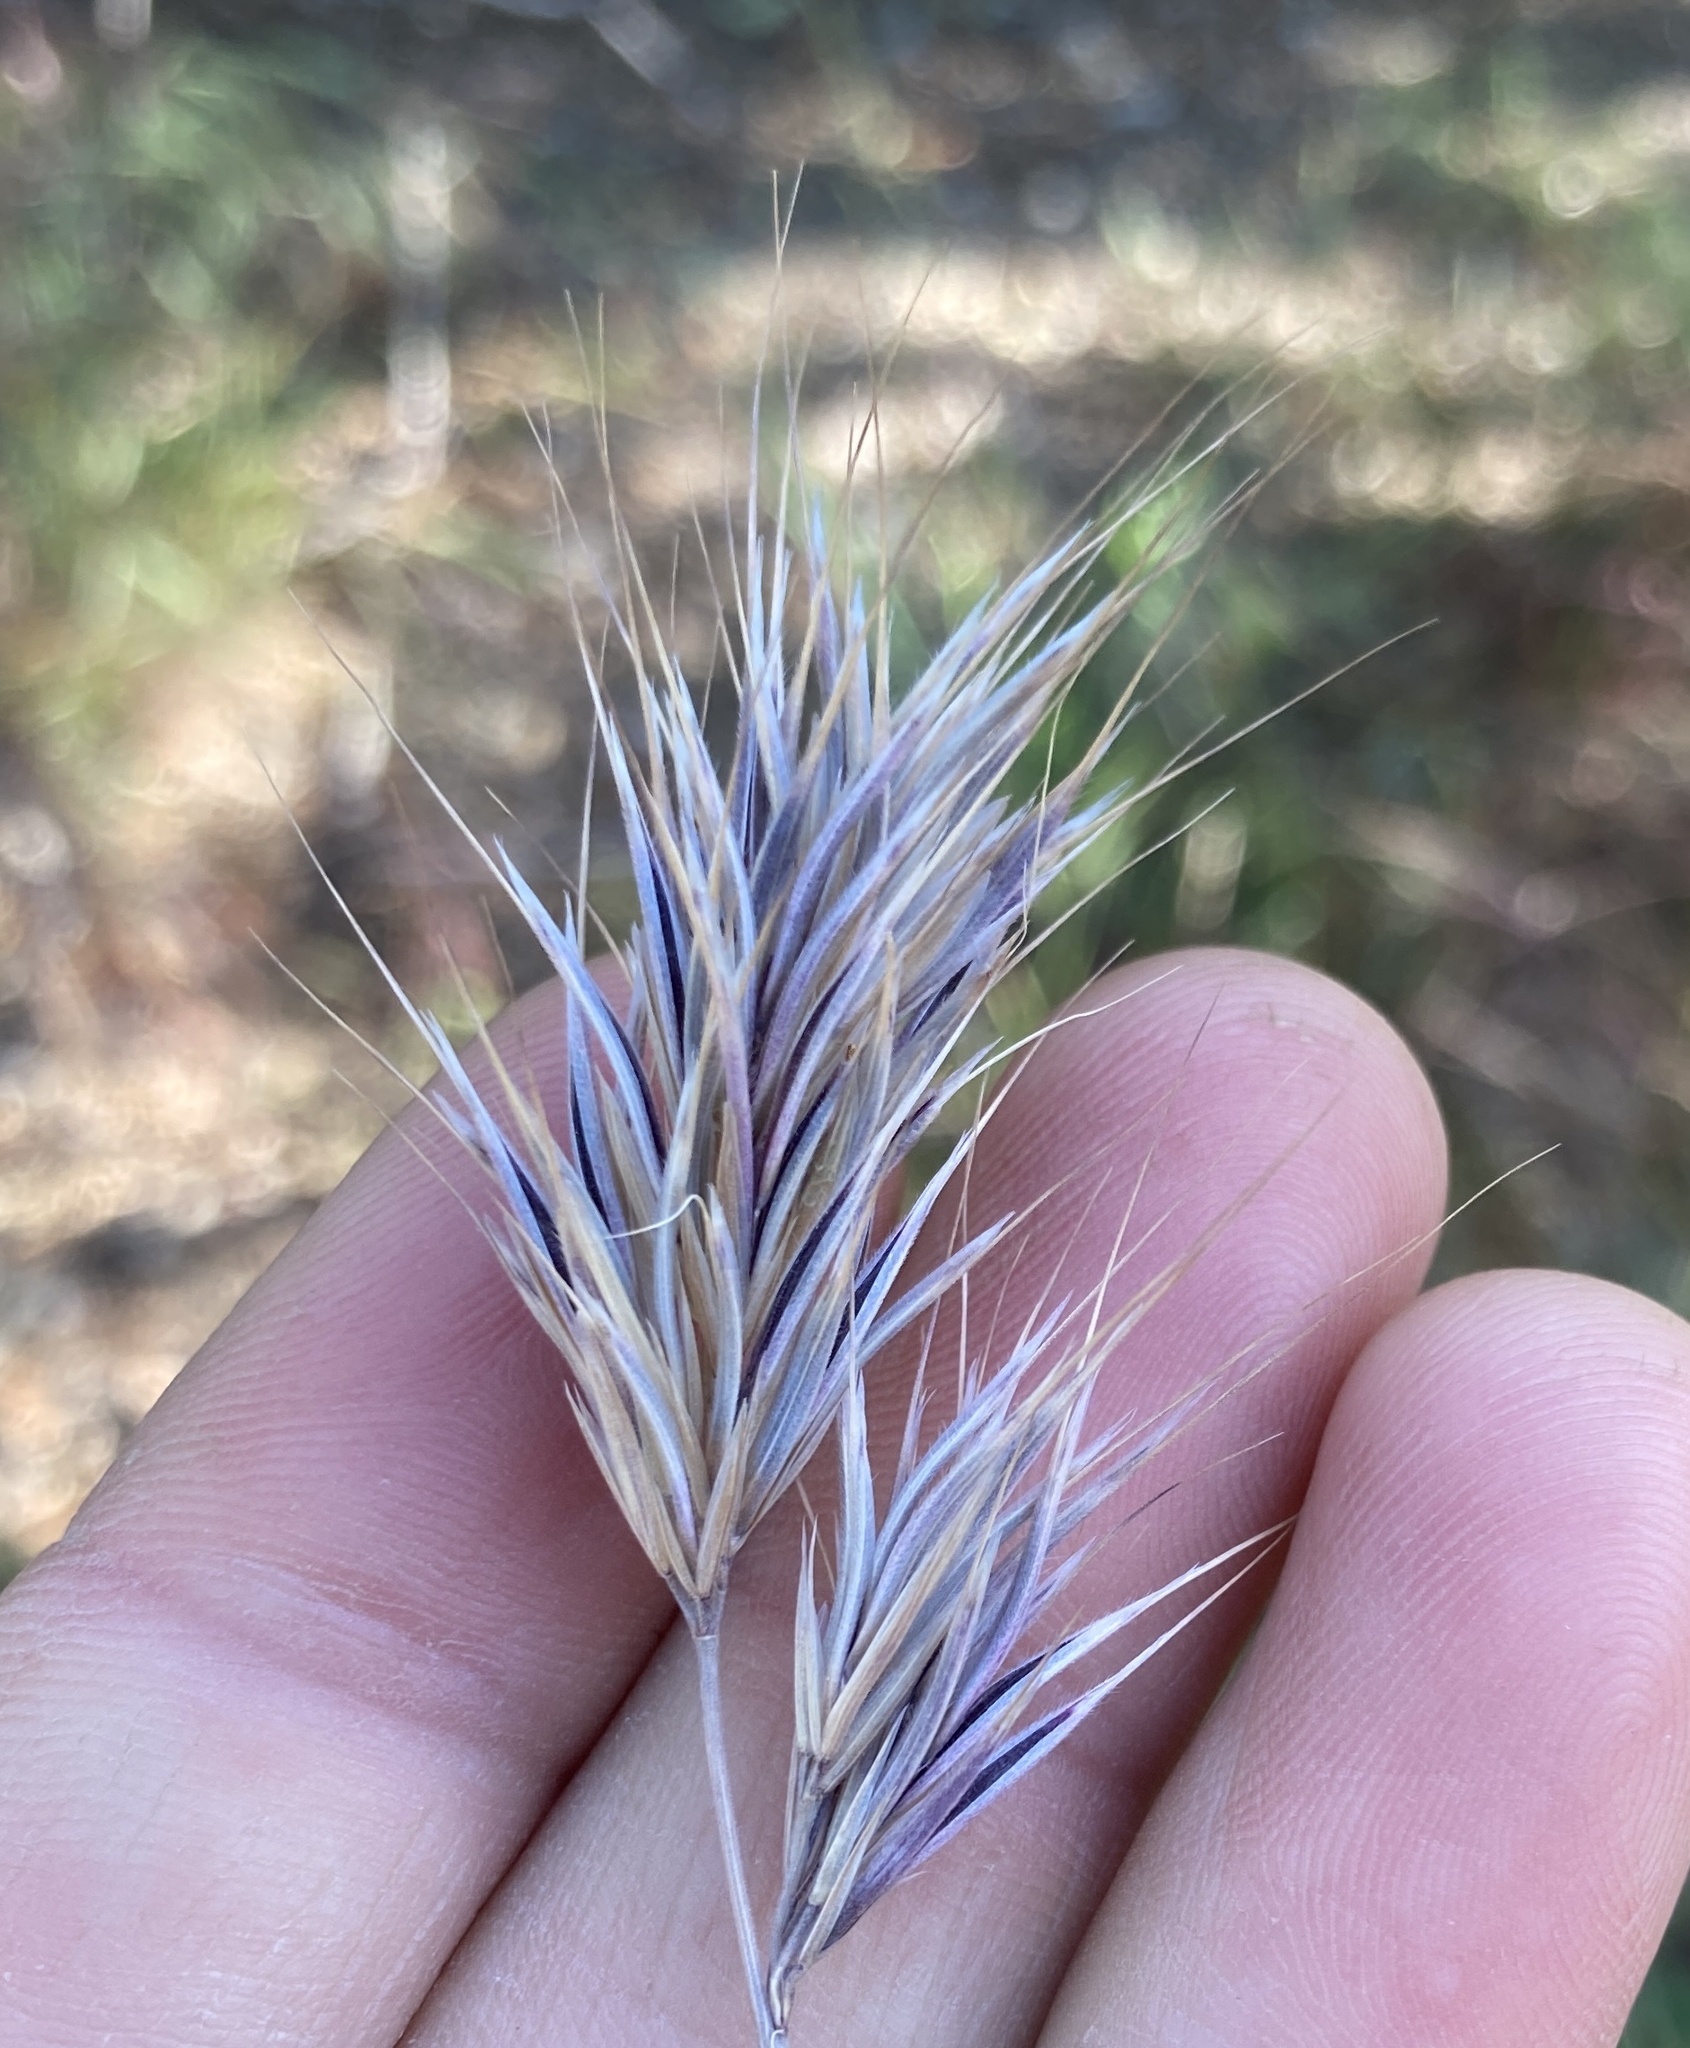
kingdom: Plantae
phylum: Tracheophyta
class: Liliopsida
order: Poales
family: Poaceae
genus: Bromus
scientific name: Bromus rubens
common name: Red brome
